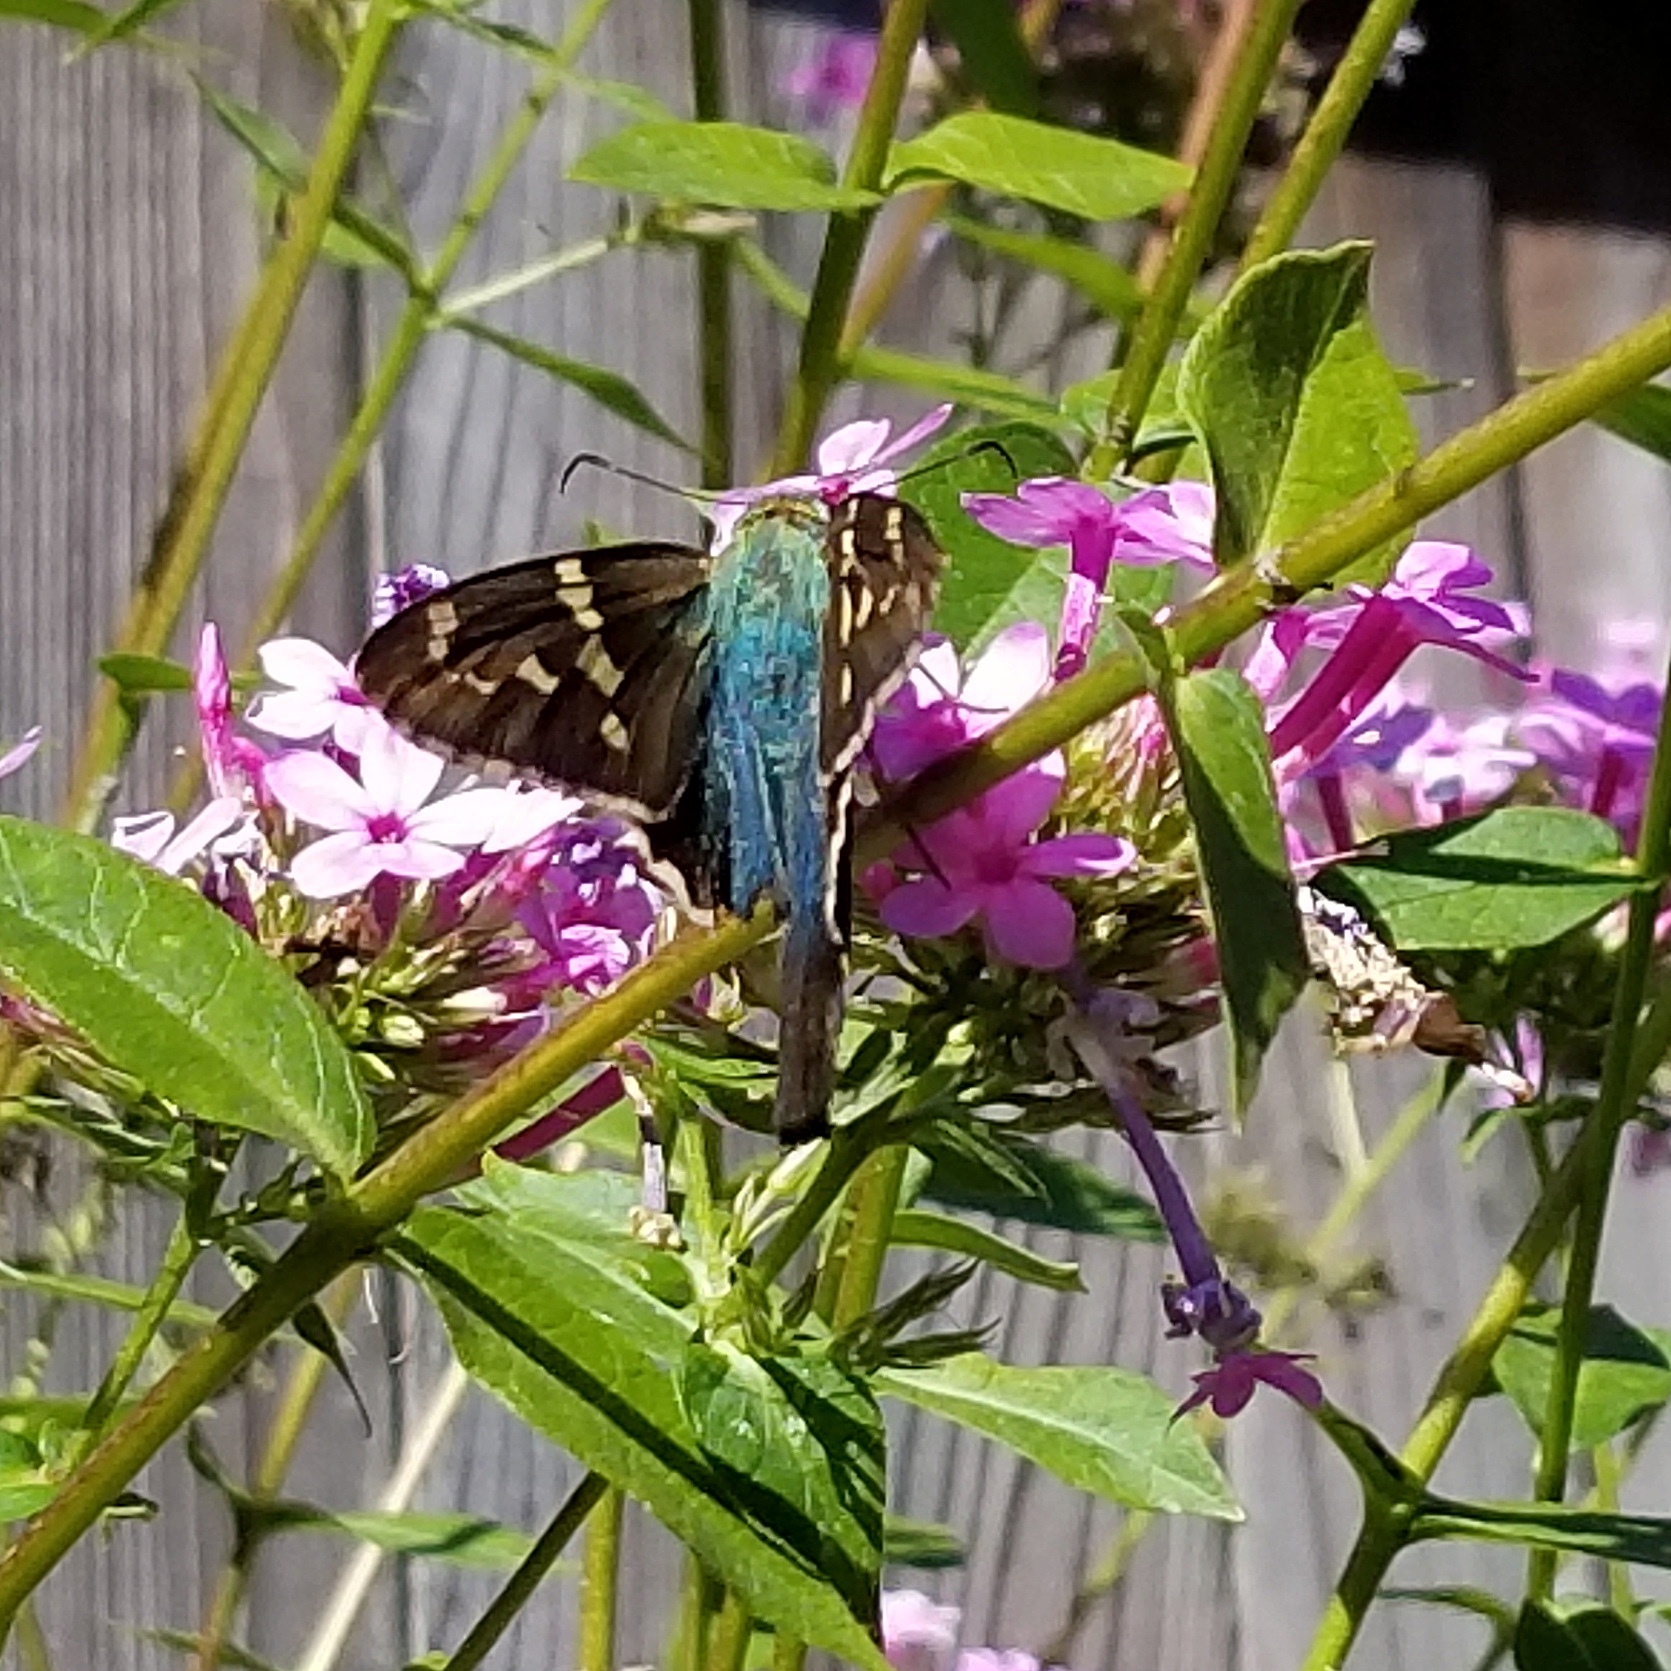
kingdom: Animalia
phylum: Arthropoda
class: Insecta
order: Lepidoptera
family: Hesperiidae
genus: Urbanus
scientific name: Urbanus proteus
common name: Long-tailed skipper
